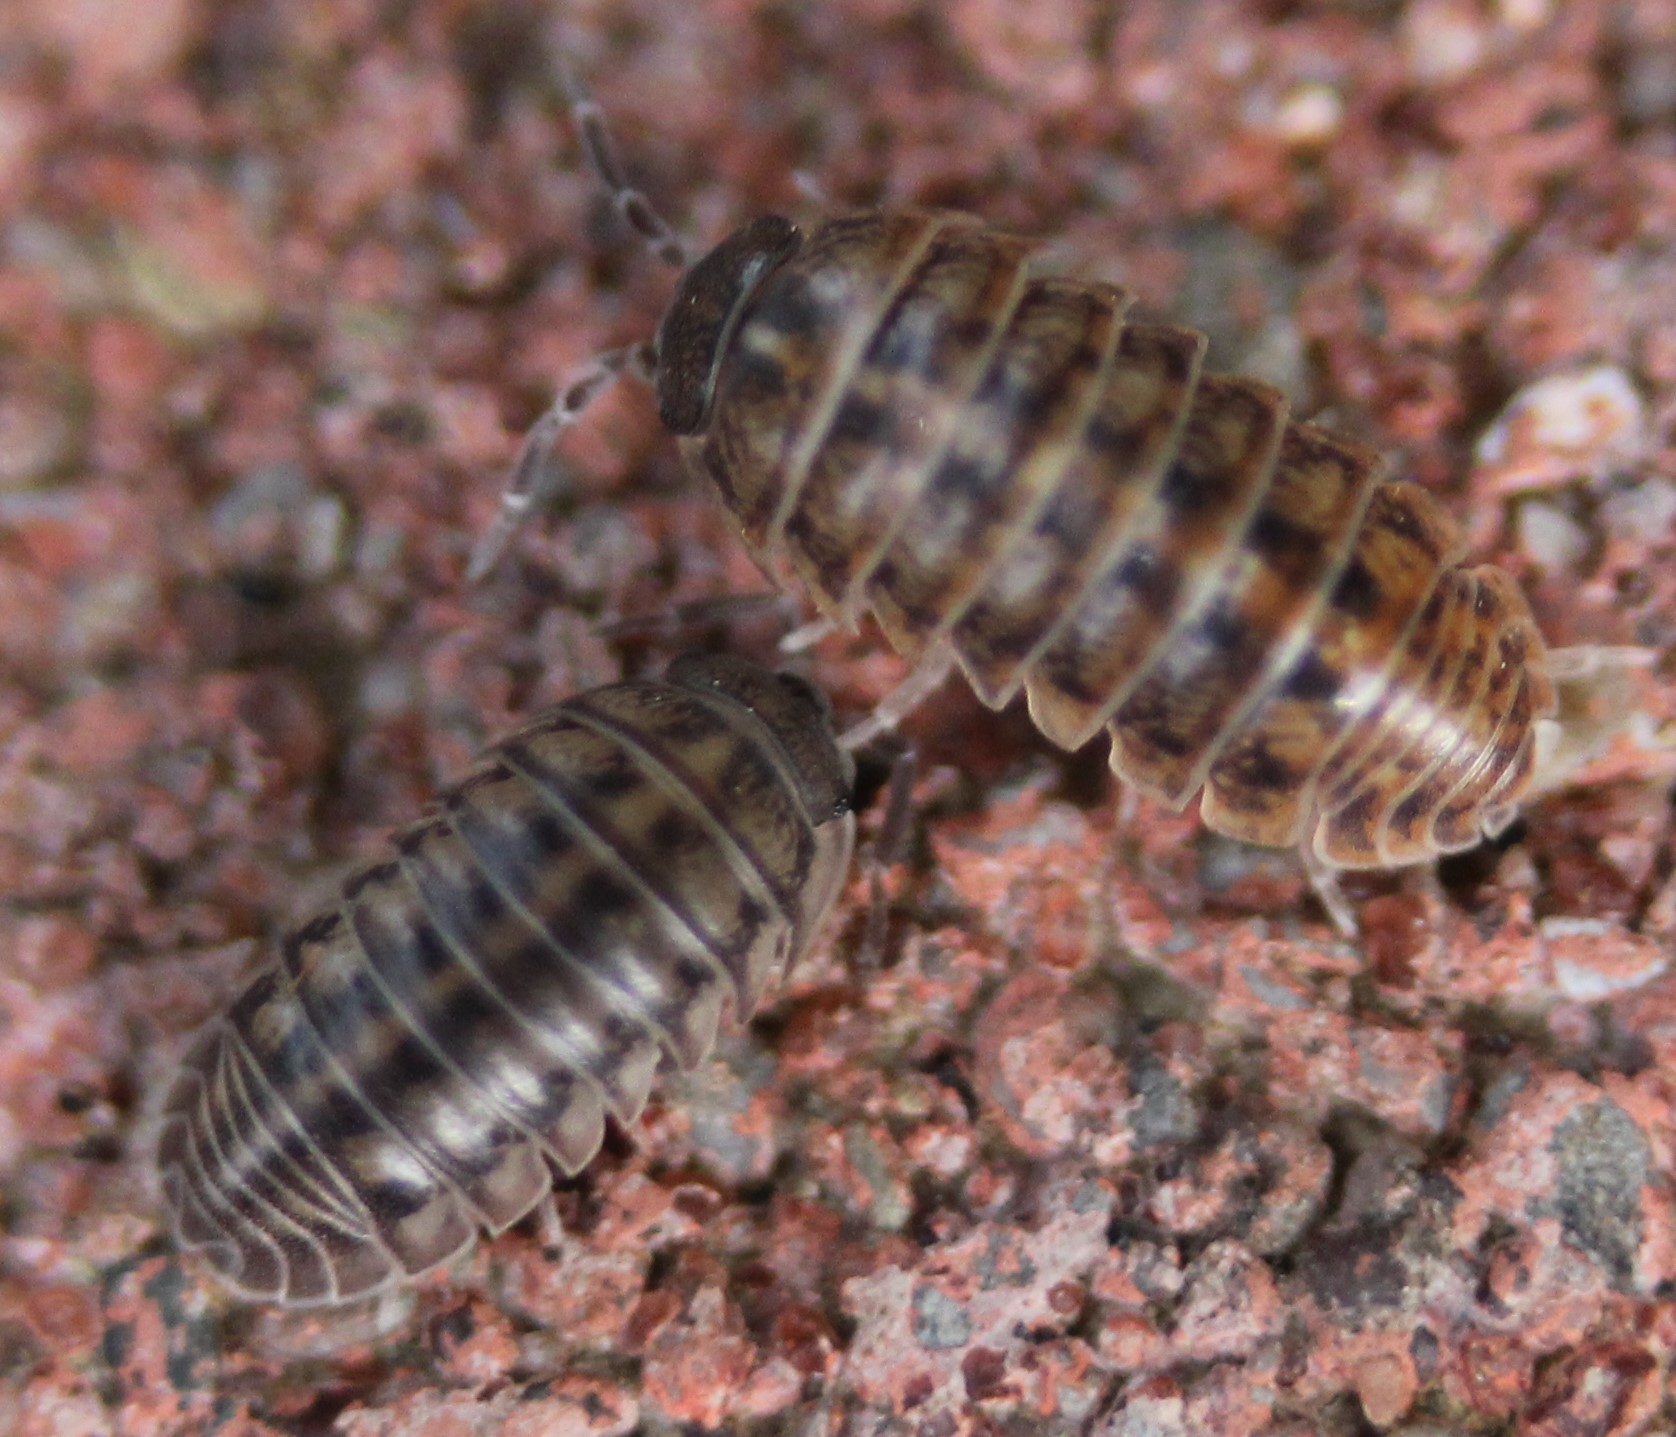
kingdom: Animalia
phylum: Arthropoda
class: Malacostraca
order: Isopoda
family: Armadillidiidae
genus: Armadillidium
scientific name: Armadillidium nasatum
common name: Isopod
